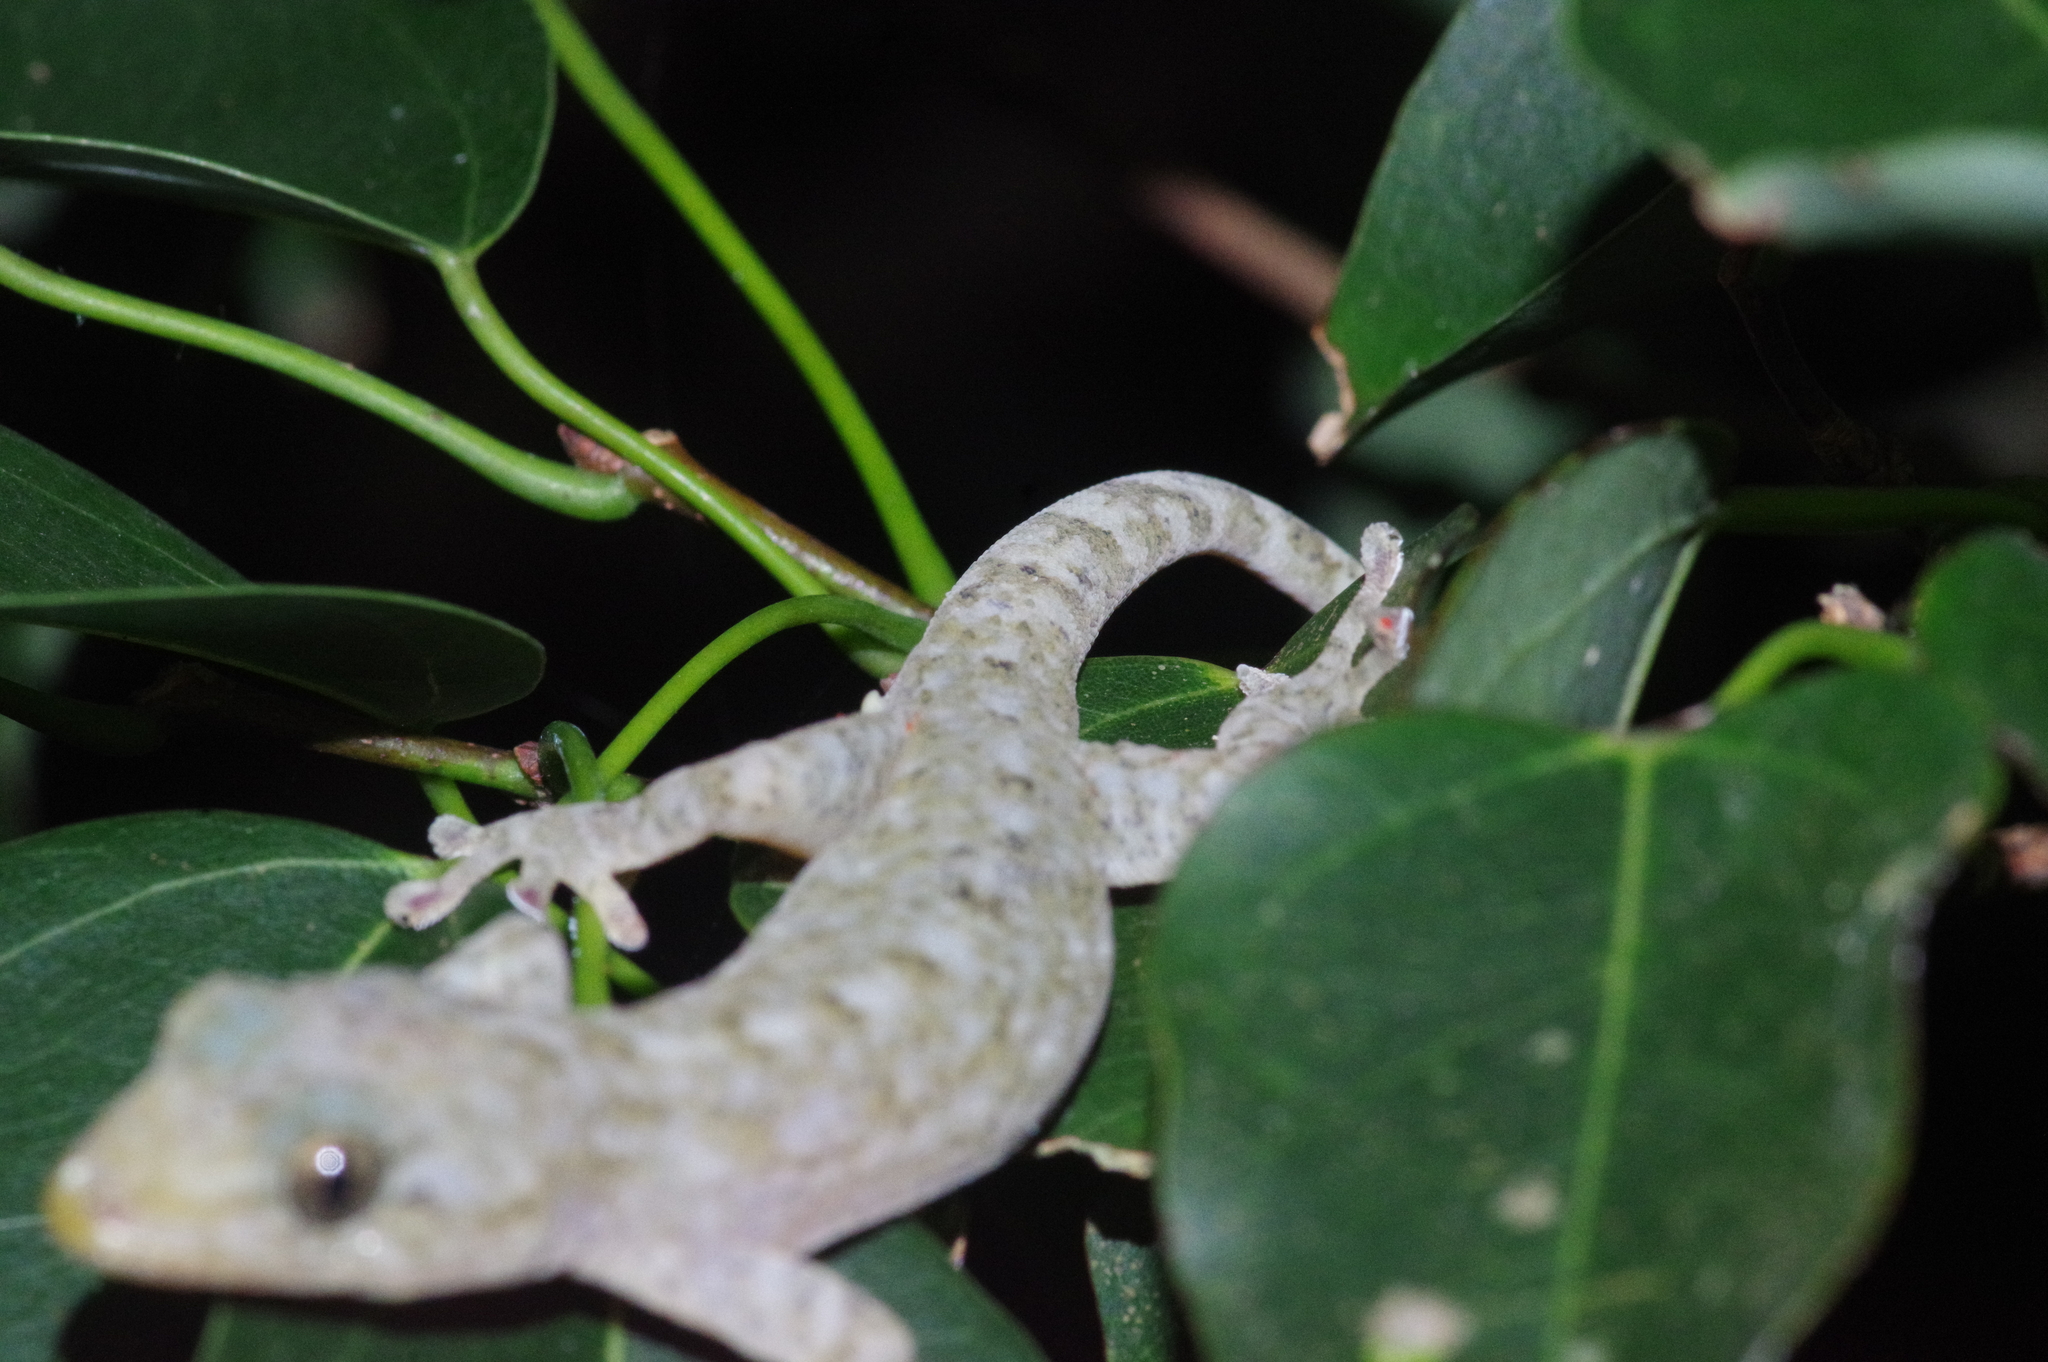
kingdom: Animalia
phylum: Chordata
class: Squamata
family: Gekkonidae
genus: Gekko
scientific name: Gekko hokouensis
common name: Kwangsi gecko
